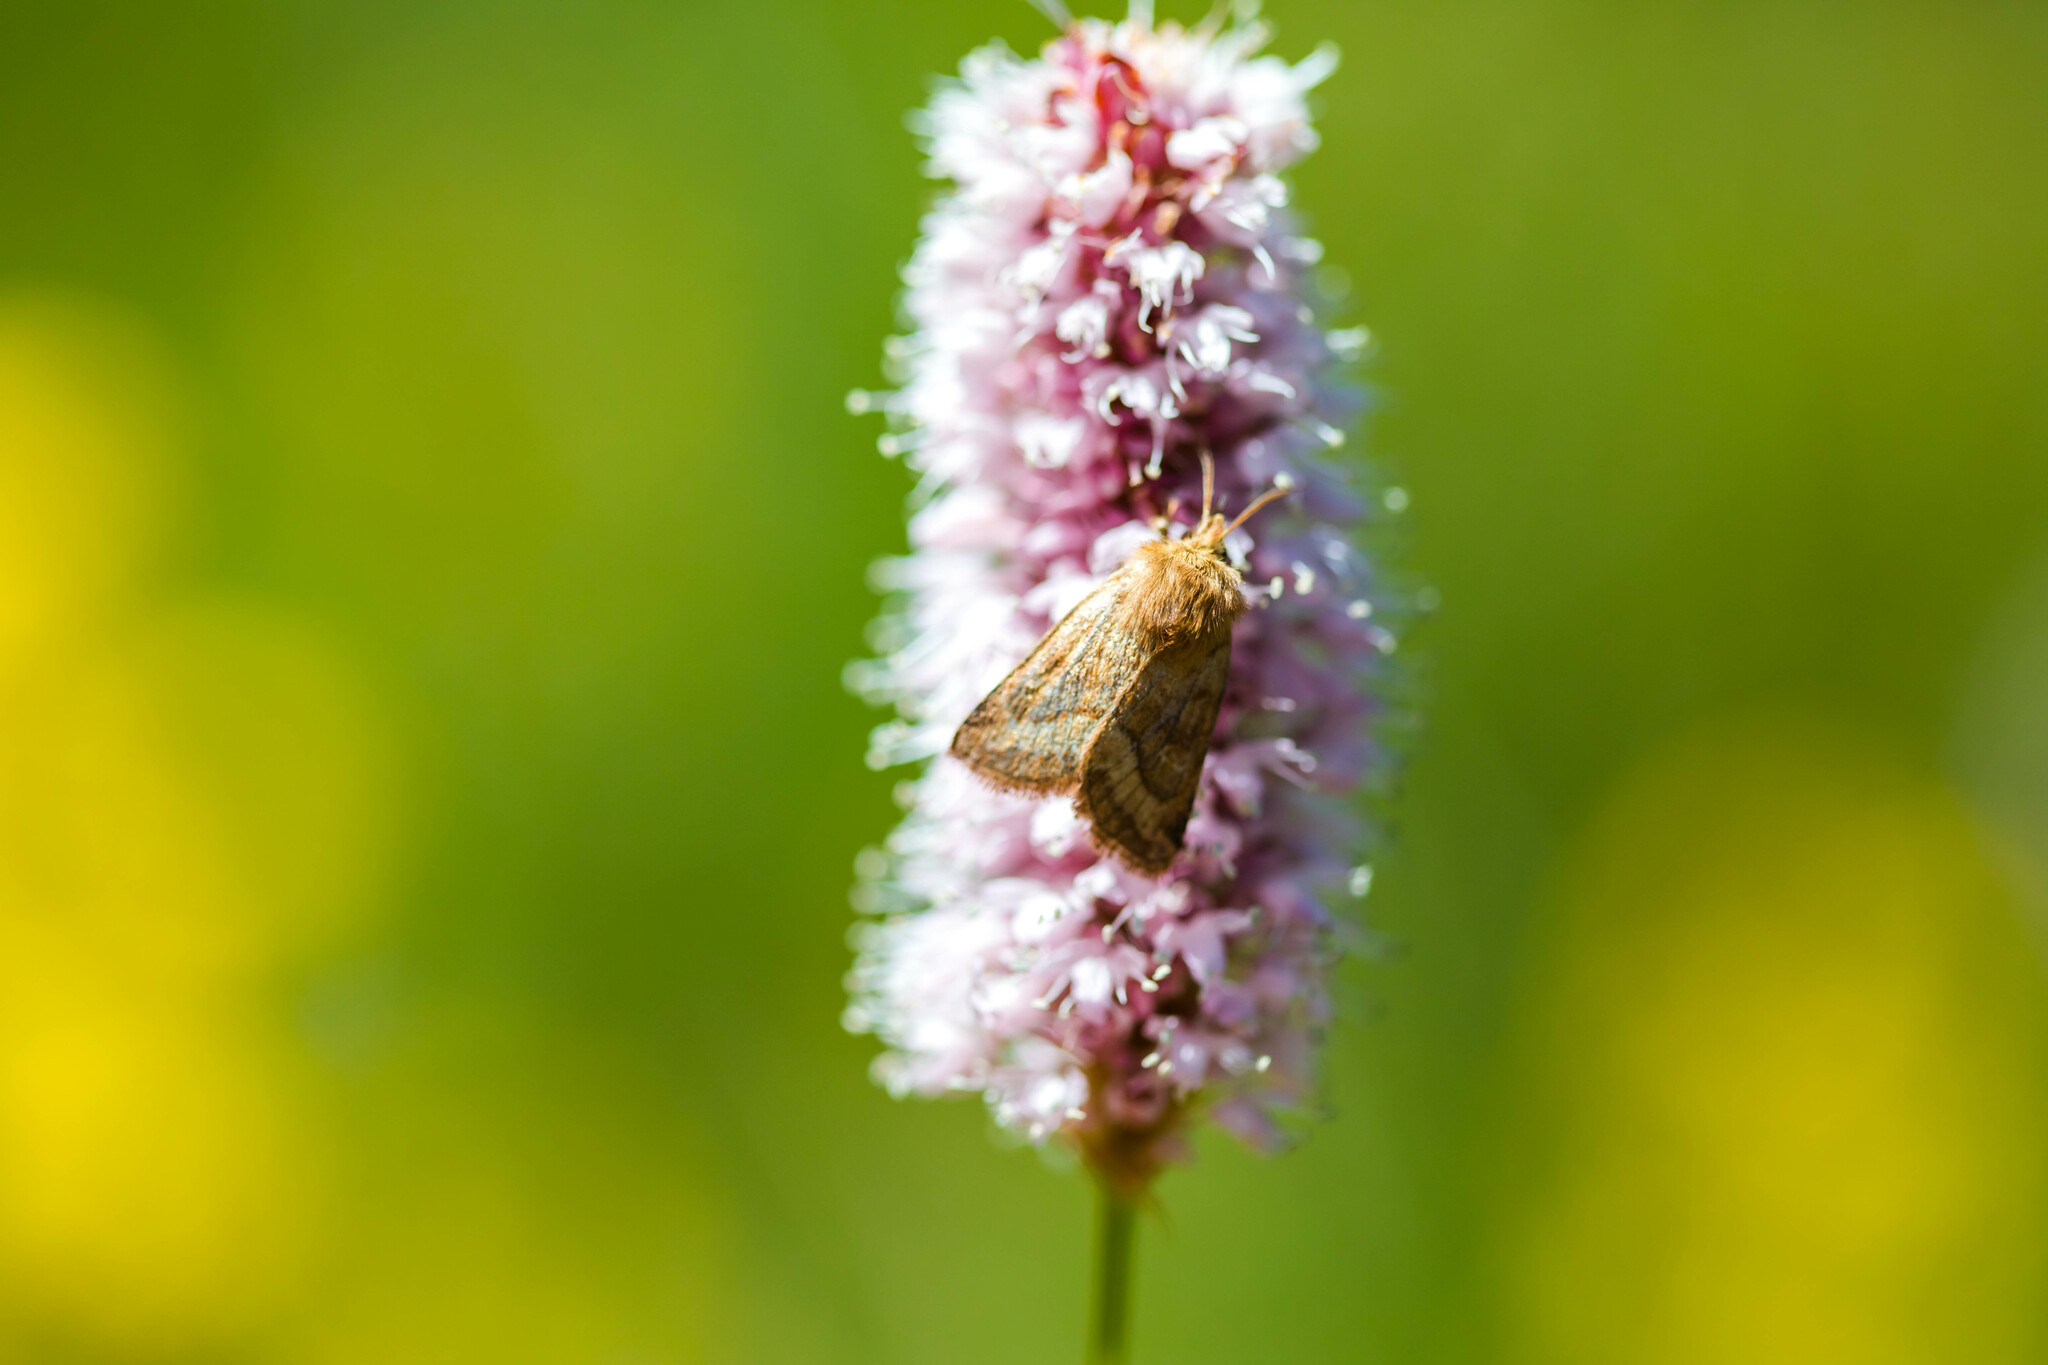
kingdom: Animalia
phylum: Arthropoda
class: Insecta
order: Lepidoptera
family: Noctuidae
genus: Lasionycta
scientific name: Lasionycta Eriopygodes imbecillus
